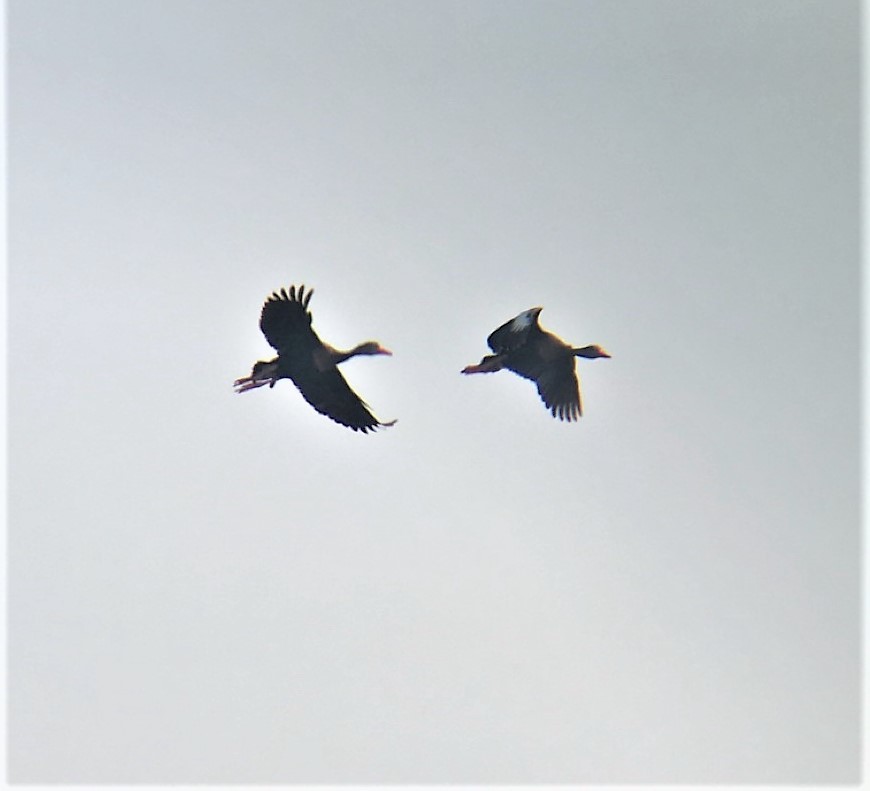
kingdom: Animalia
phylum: Chordata
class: Aves
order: Anseriformes
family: Anatidae
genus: Dendrocygna
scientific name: Dendrocygna autumnalis
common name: Black-bellied whistling duck
